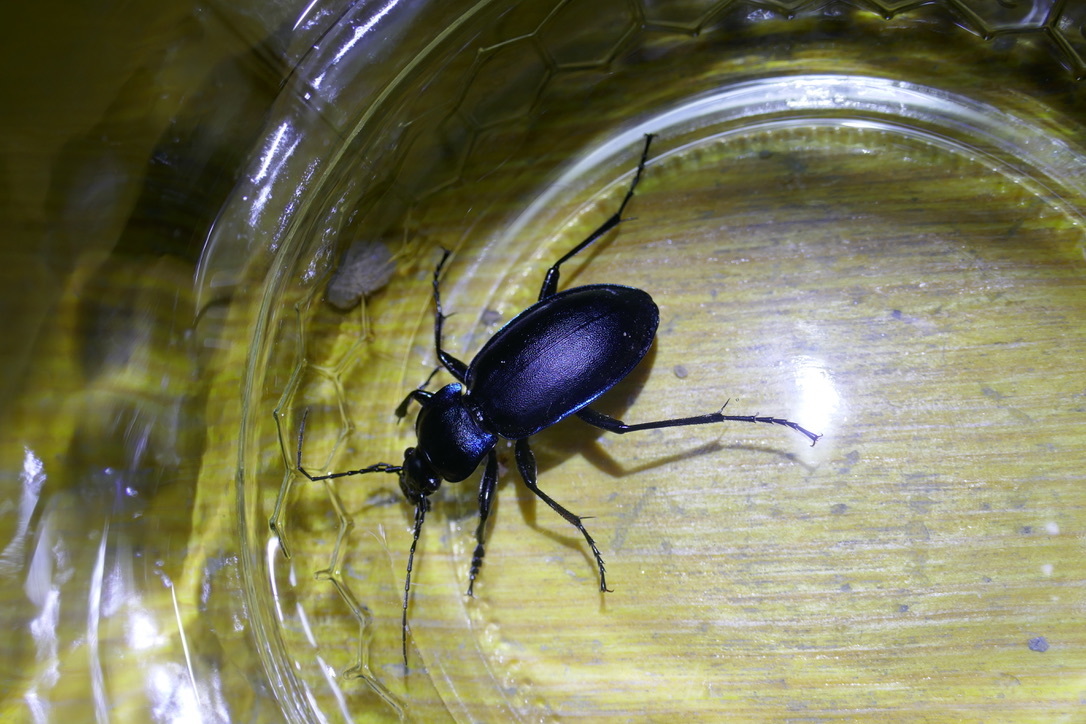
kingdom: Animalia
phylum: Arthropoda
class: Insecta
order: Coleoptera
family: Carabidae
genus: Carabus
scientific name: Carabus violaceus
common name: Violet ground beetle
